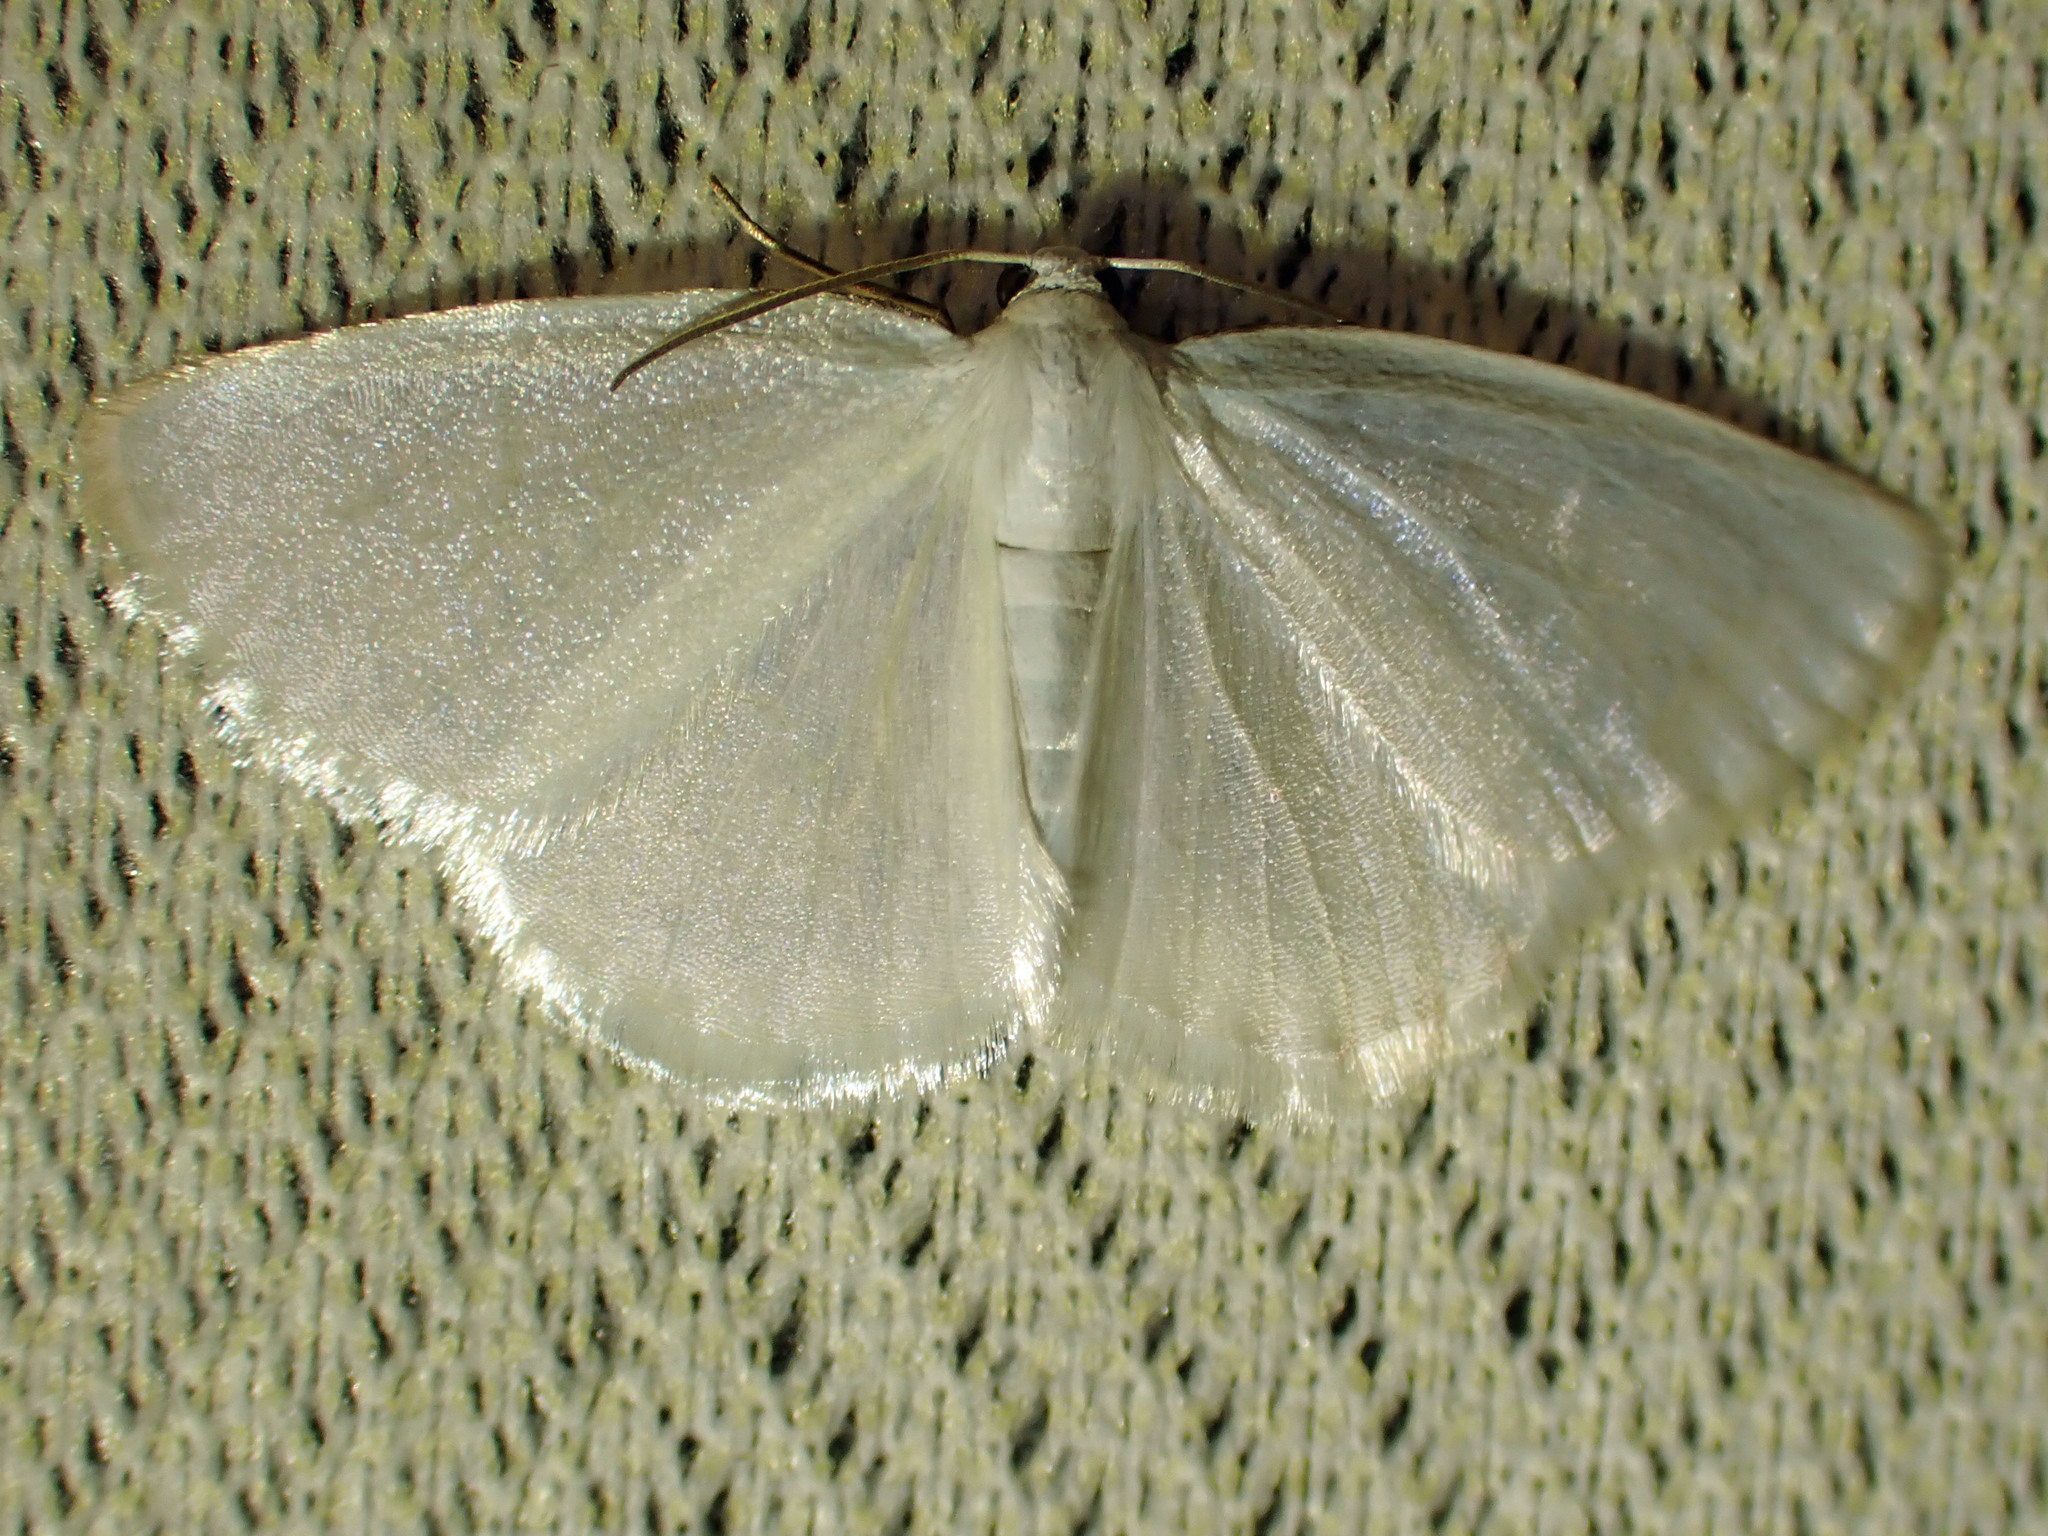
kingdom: Animalia
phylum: Arthropoda
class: Insecta
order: Lepidoptera
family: Geometridae
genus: Lomographa
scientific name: Lomographa vestaliata
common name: White spring moth
